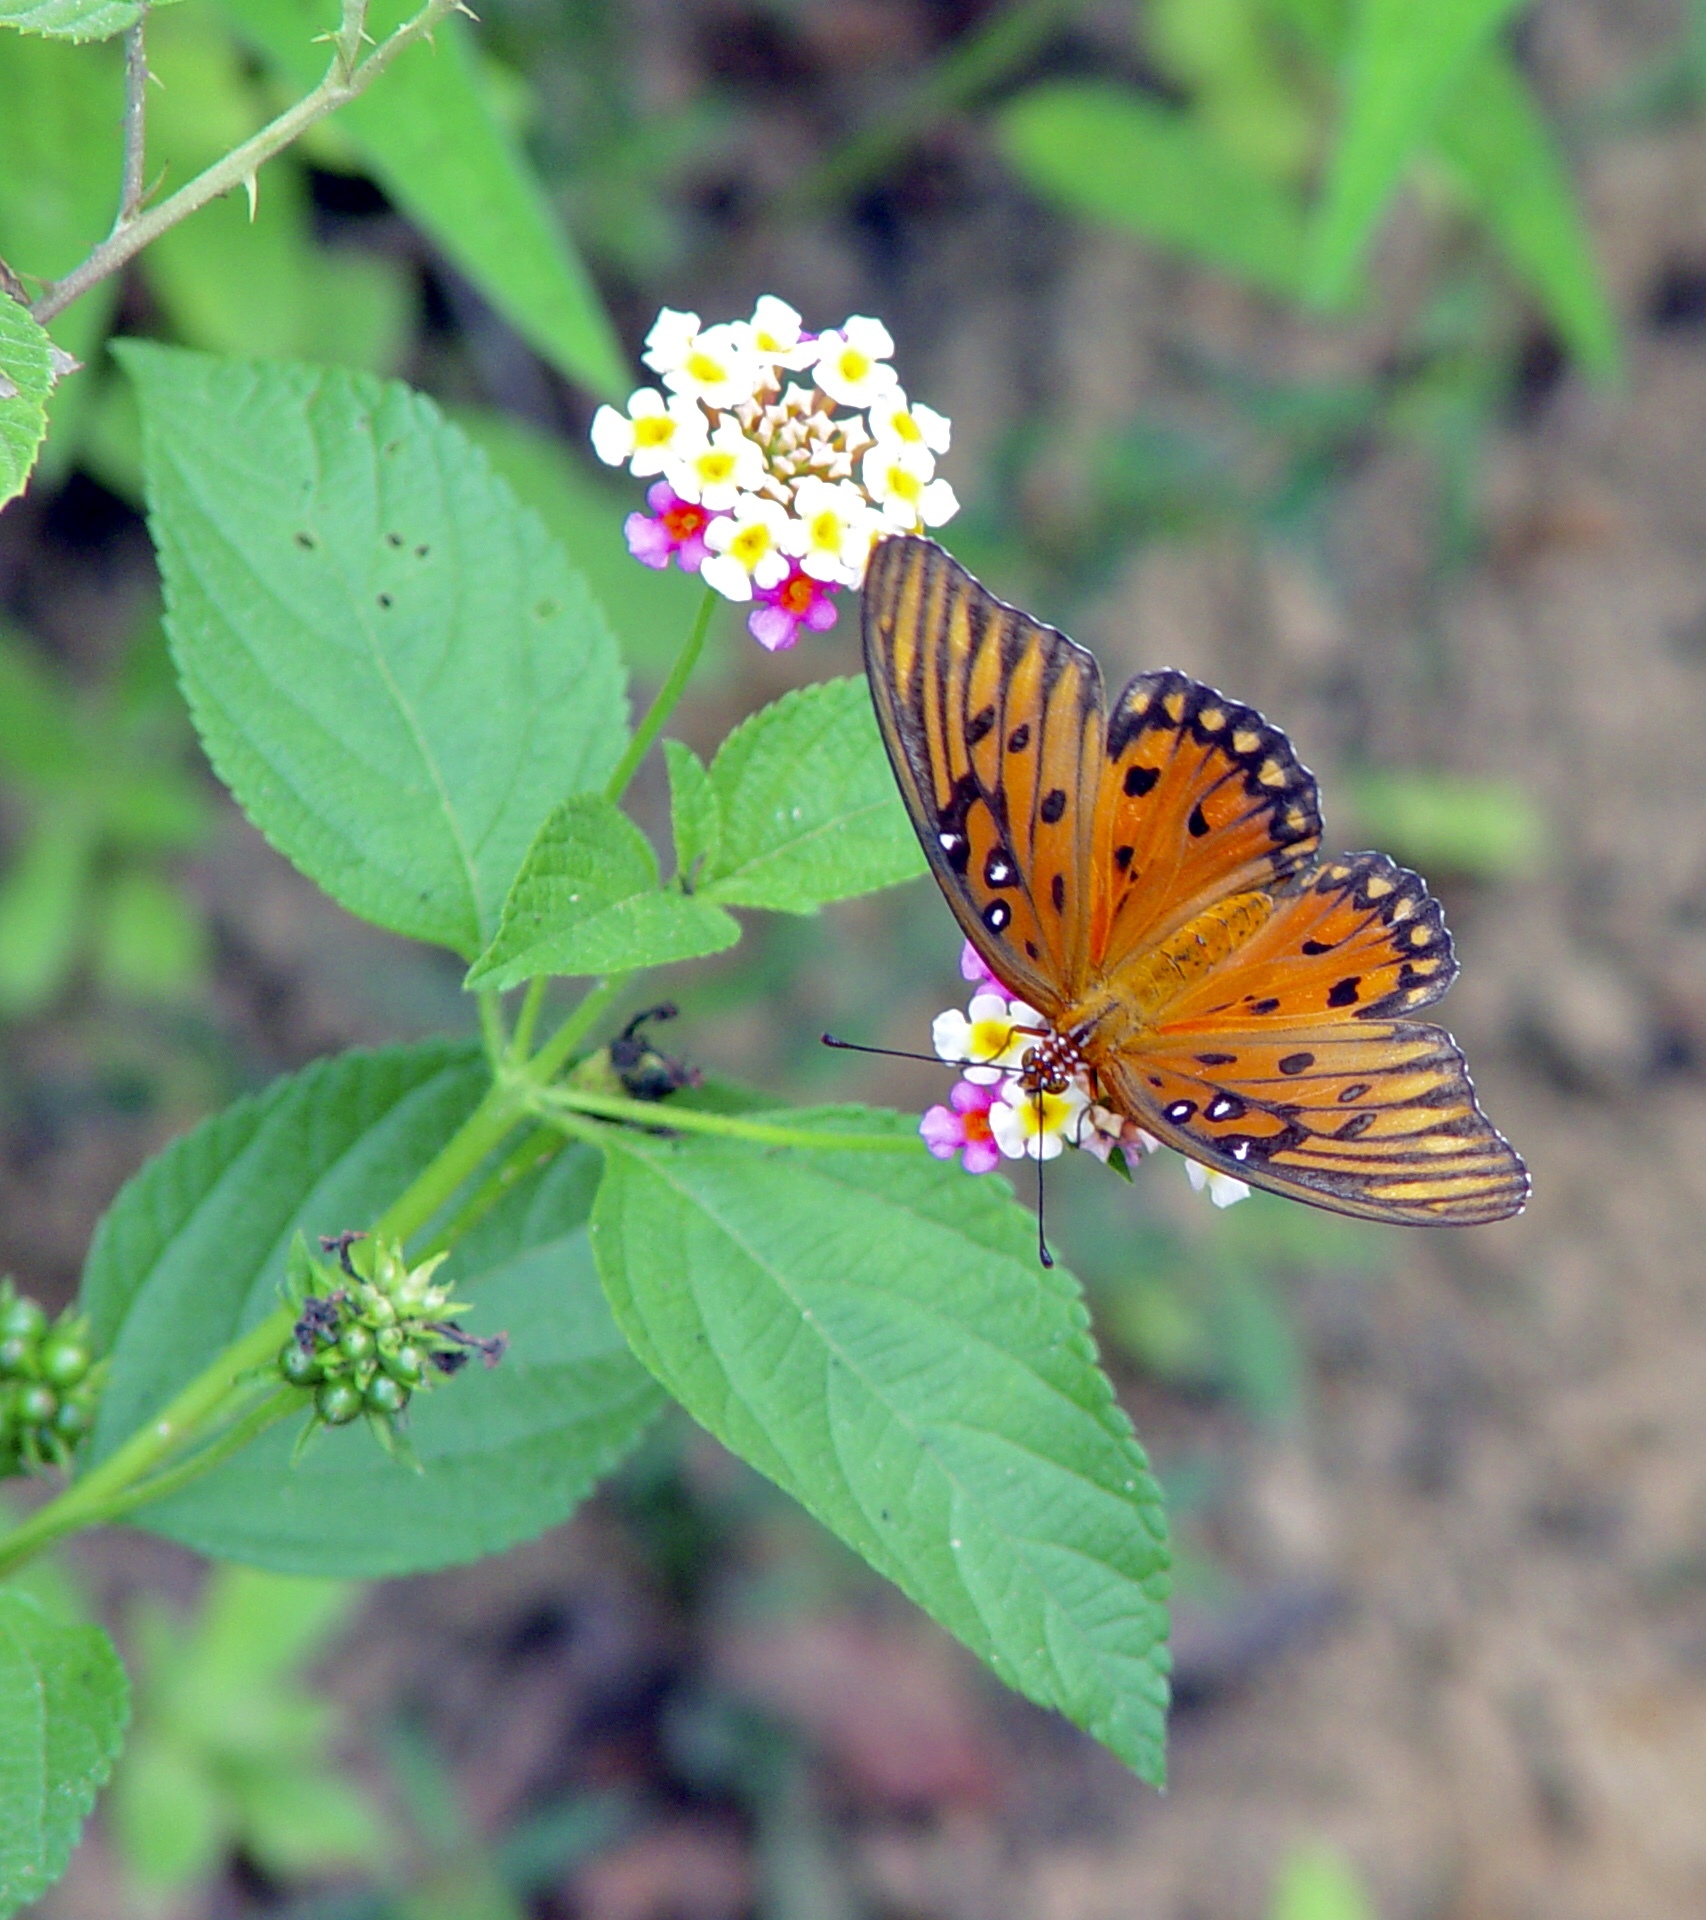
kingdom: Animalia
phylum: Arthropoda
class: Insecta
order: Lepidoptera
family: Nymphalidae
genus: Dione
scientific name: Dione vanillae
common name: Gulf fritillary
